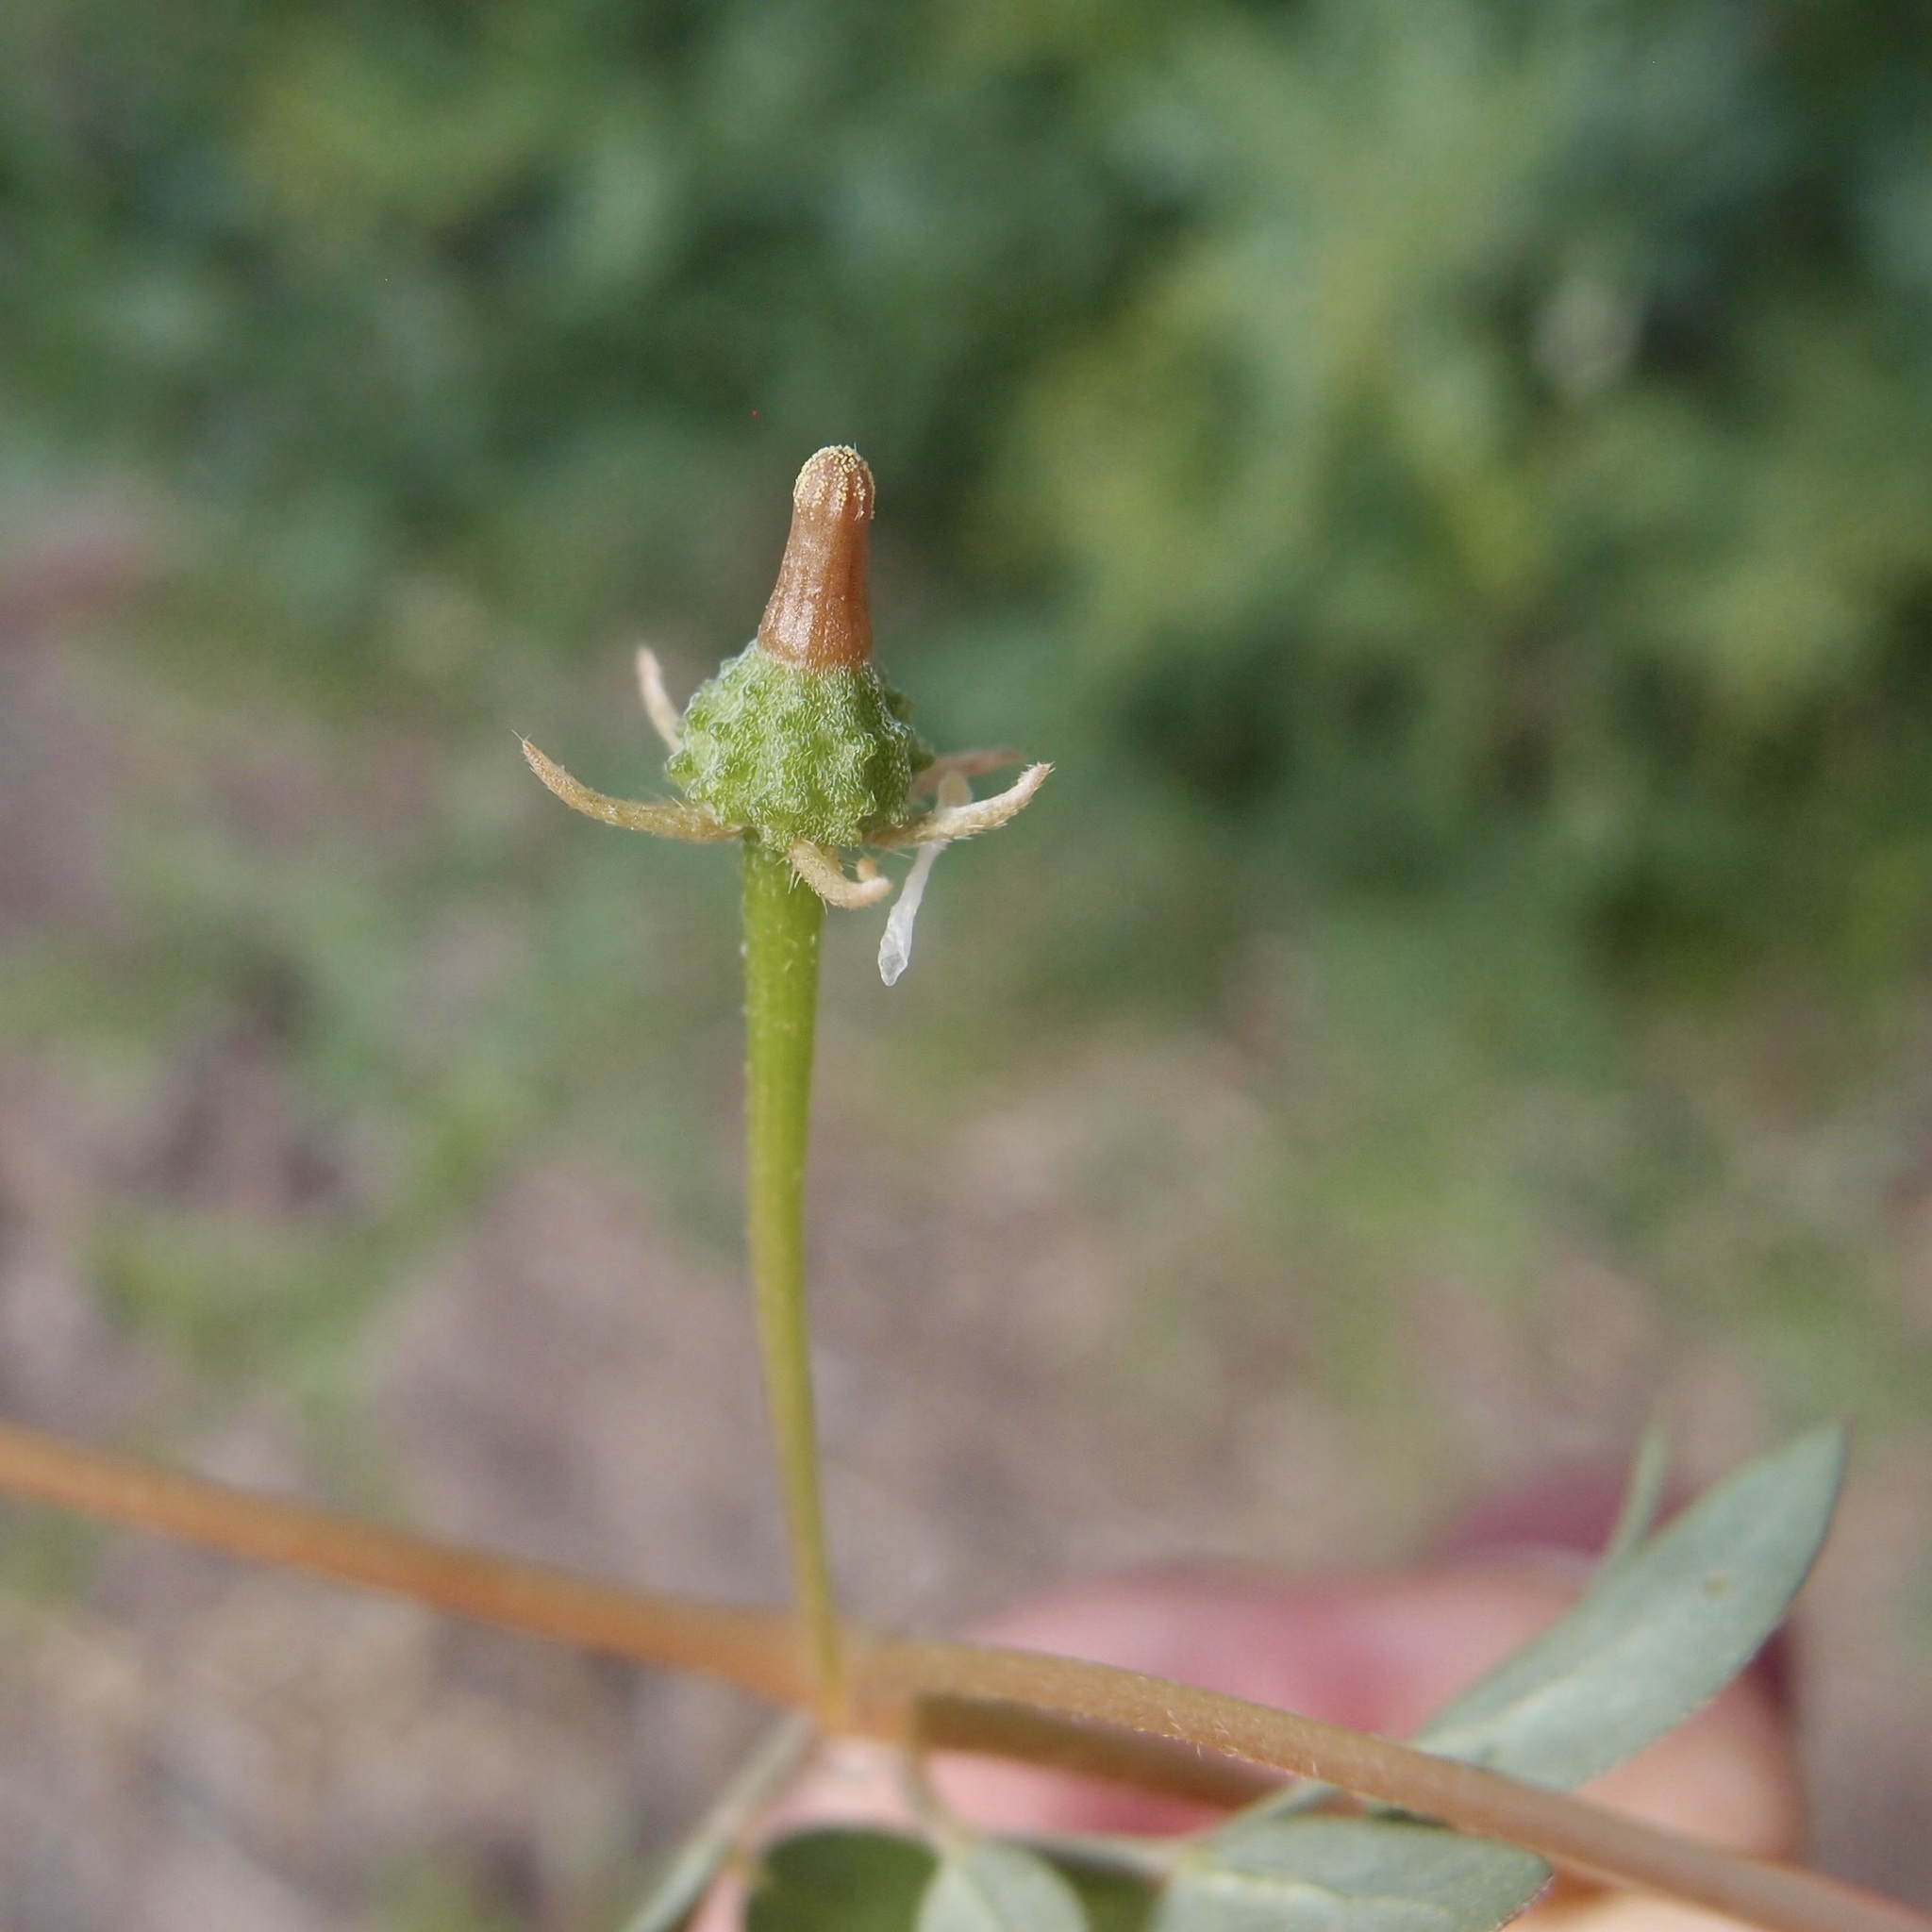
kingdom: Plantae
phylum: Tracheophyta
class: Magnoliopsida
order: Zygophyllales
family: Zygophyllaceae
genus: Kallstroemia
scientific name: Kallstroemia californica
